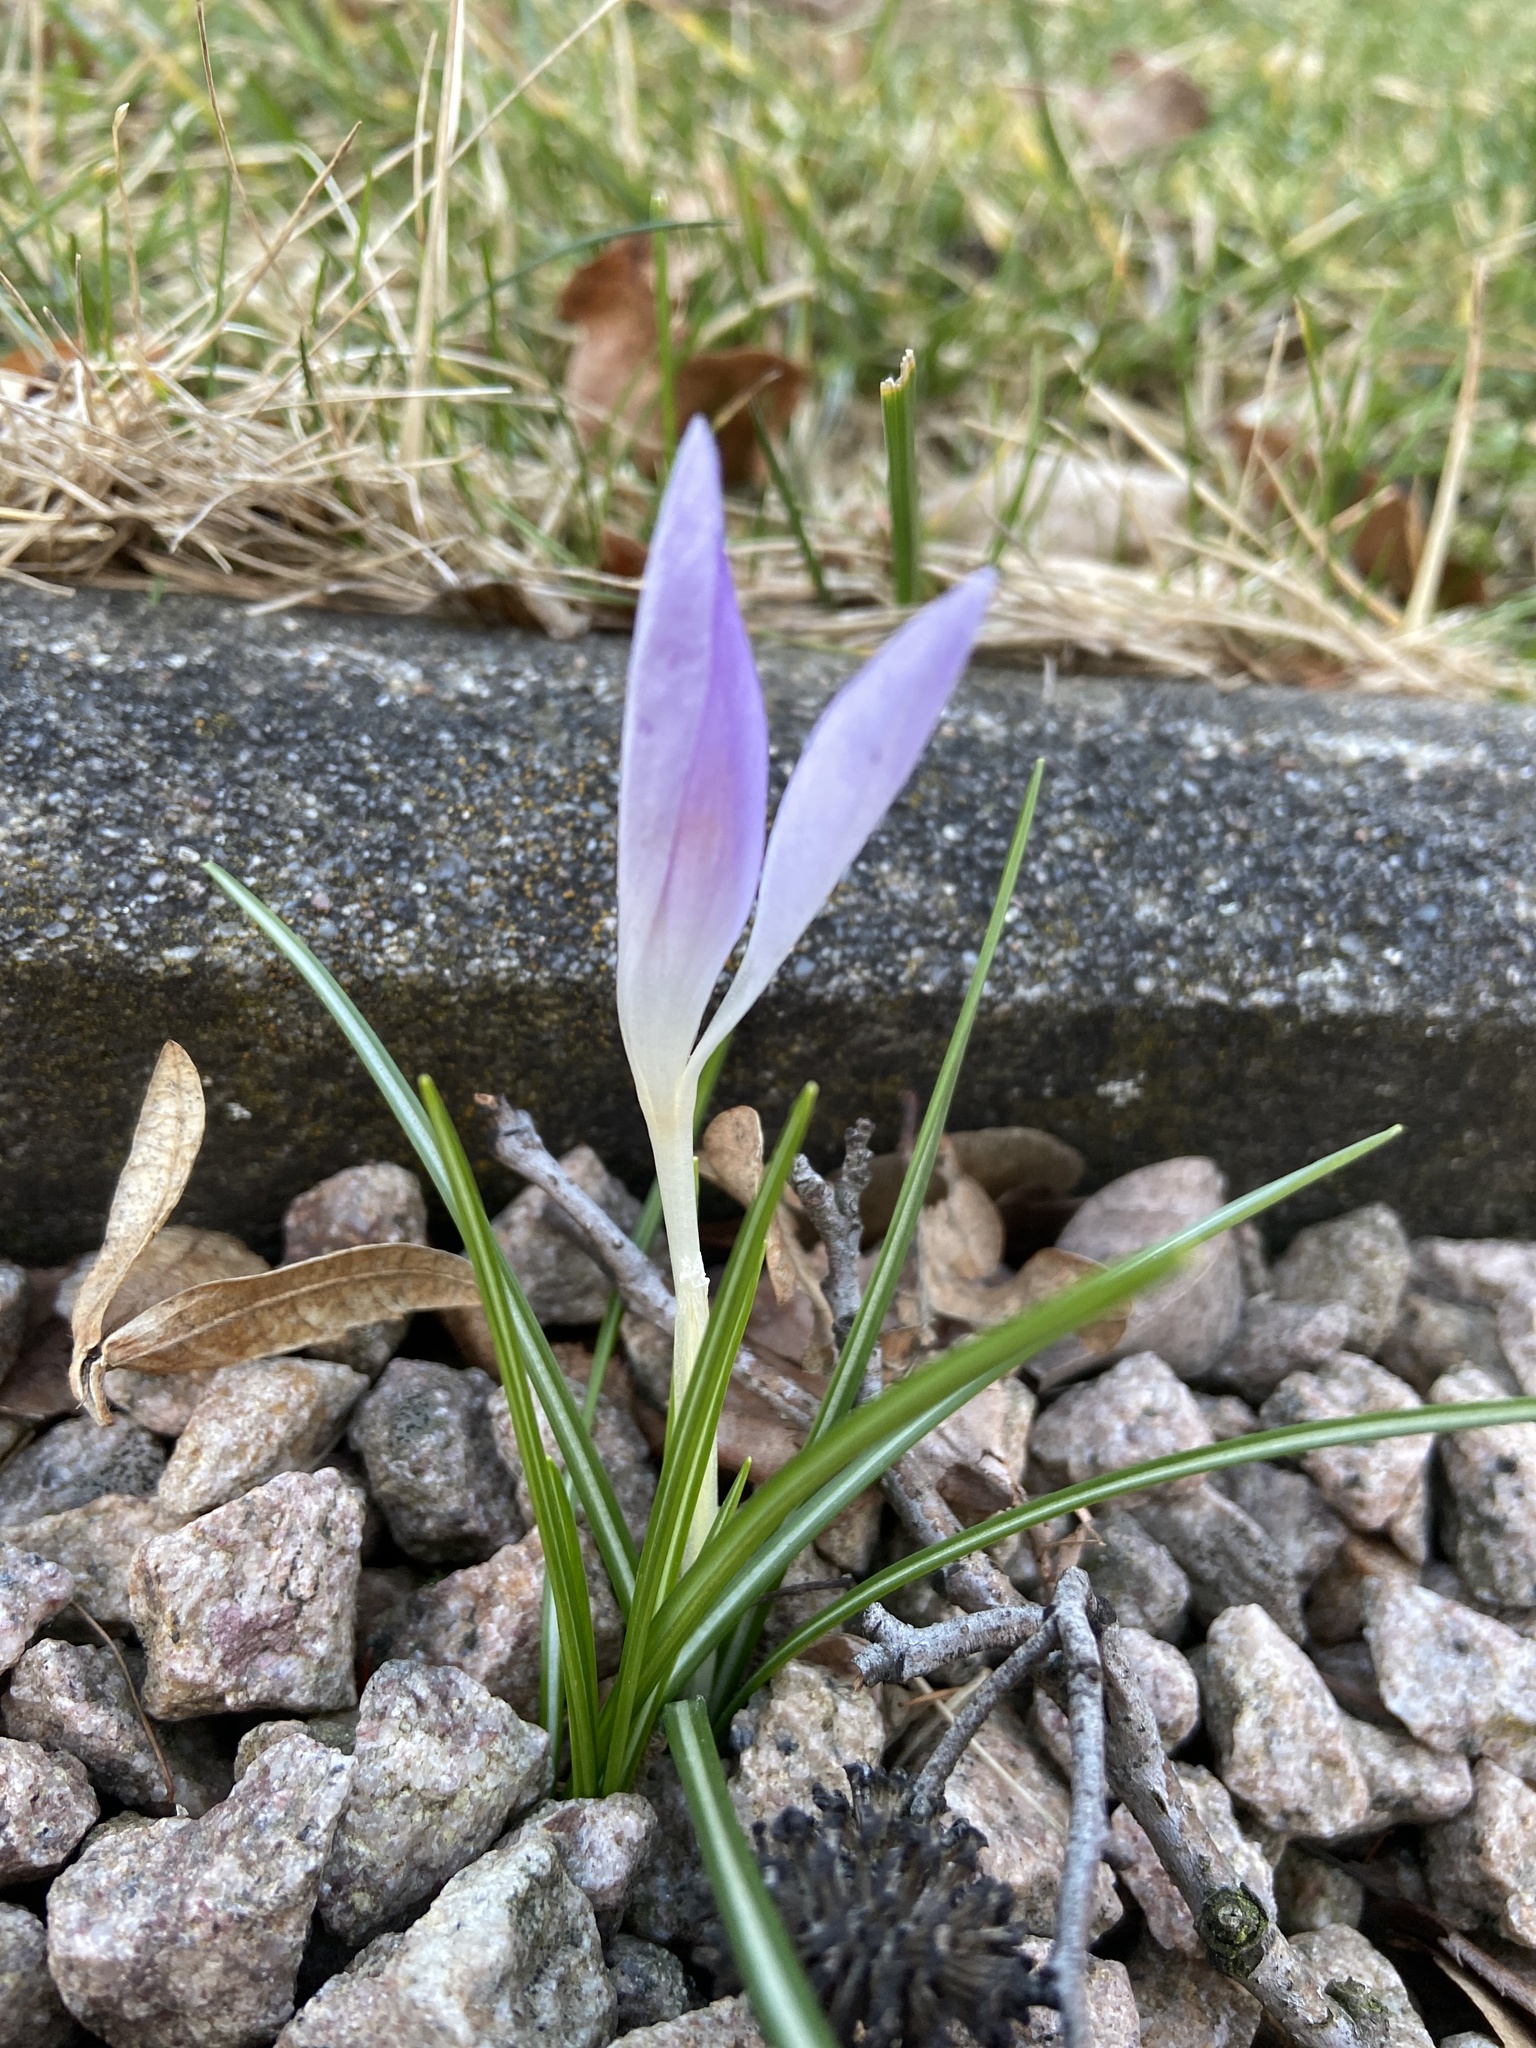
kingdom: Plantae
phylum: Tracheophyta
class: Liliopsida
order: Asparagales
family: Iridaceae
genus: Crocus
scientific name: Crocus tommasinianus
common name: Early crocus
